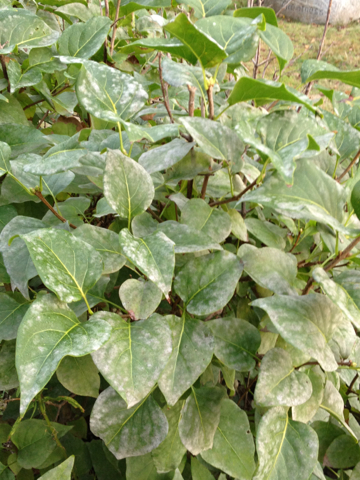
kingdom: Plantae
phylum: Tracheophyta
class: Magnoliopsida
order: Lamiales
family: Oleaceae
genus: Syringa
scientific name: Syringa vulgaris
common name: Common lilac
